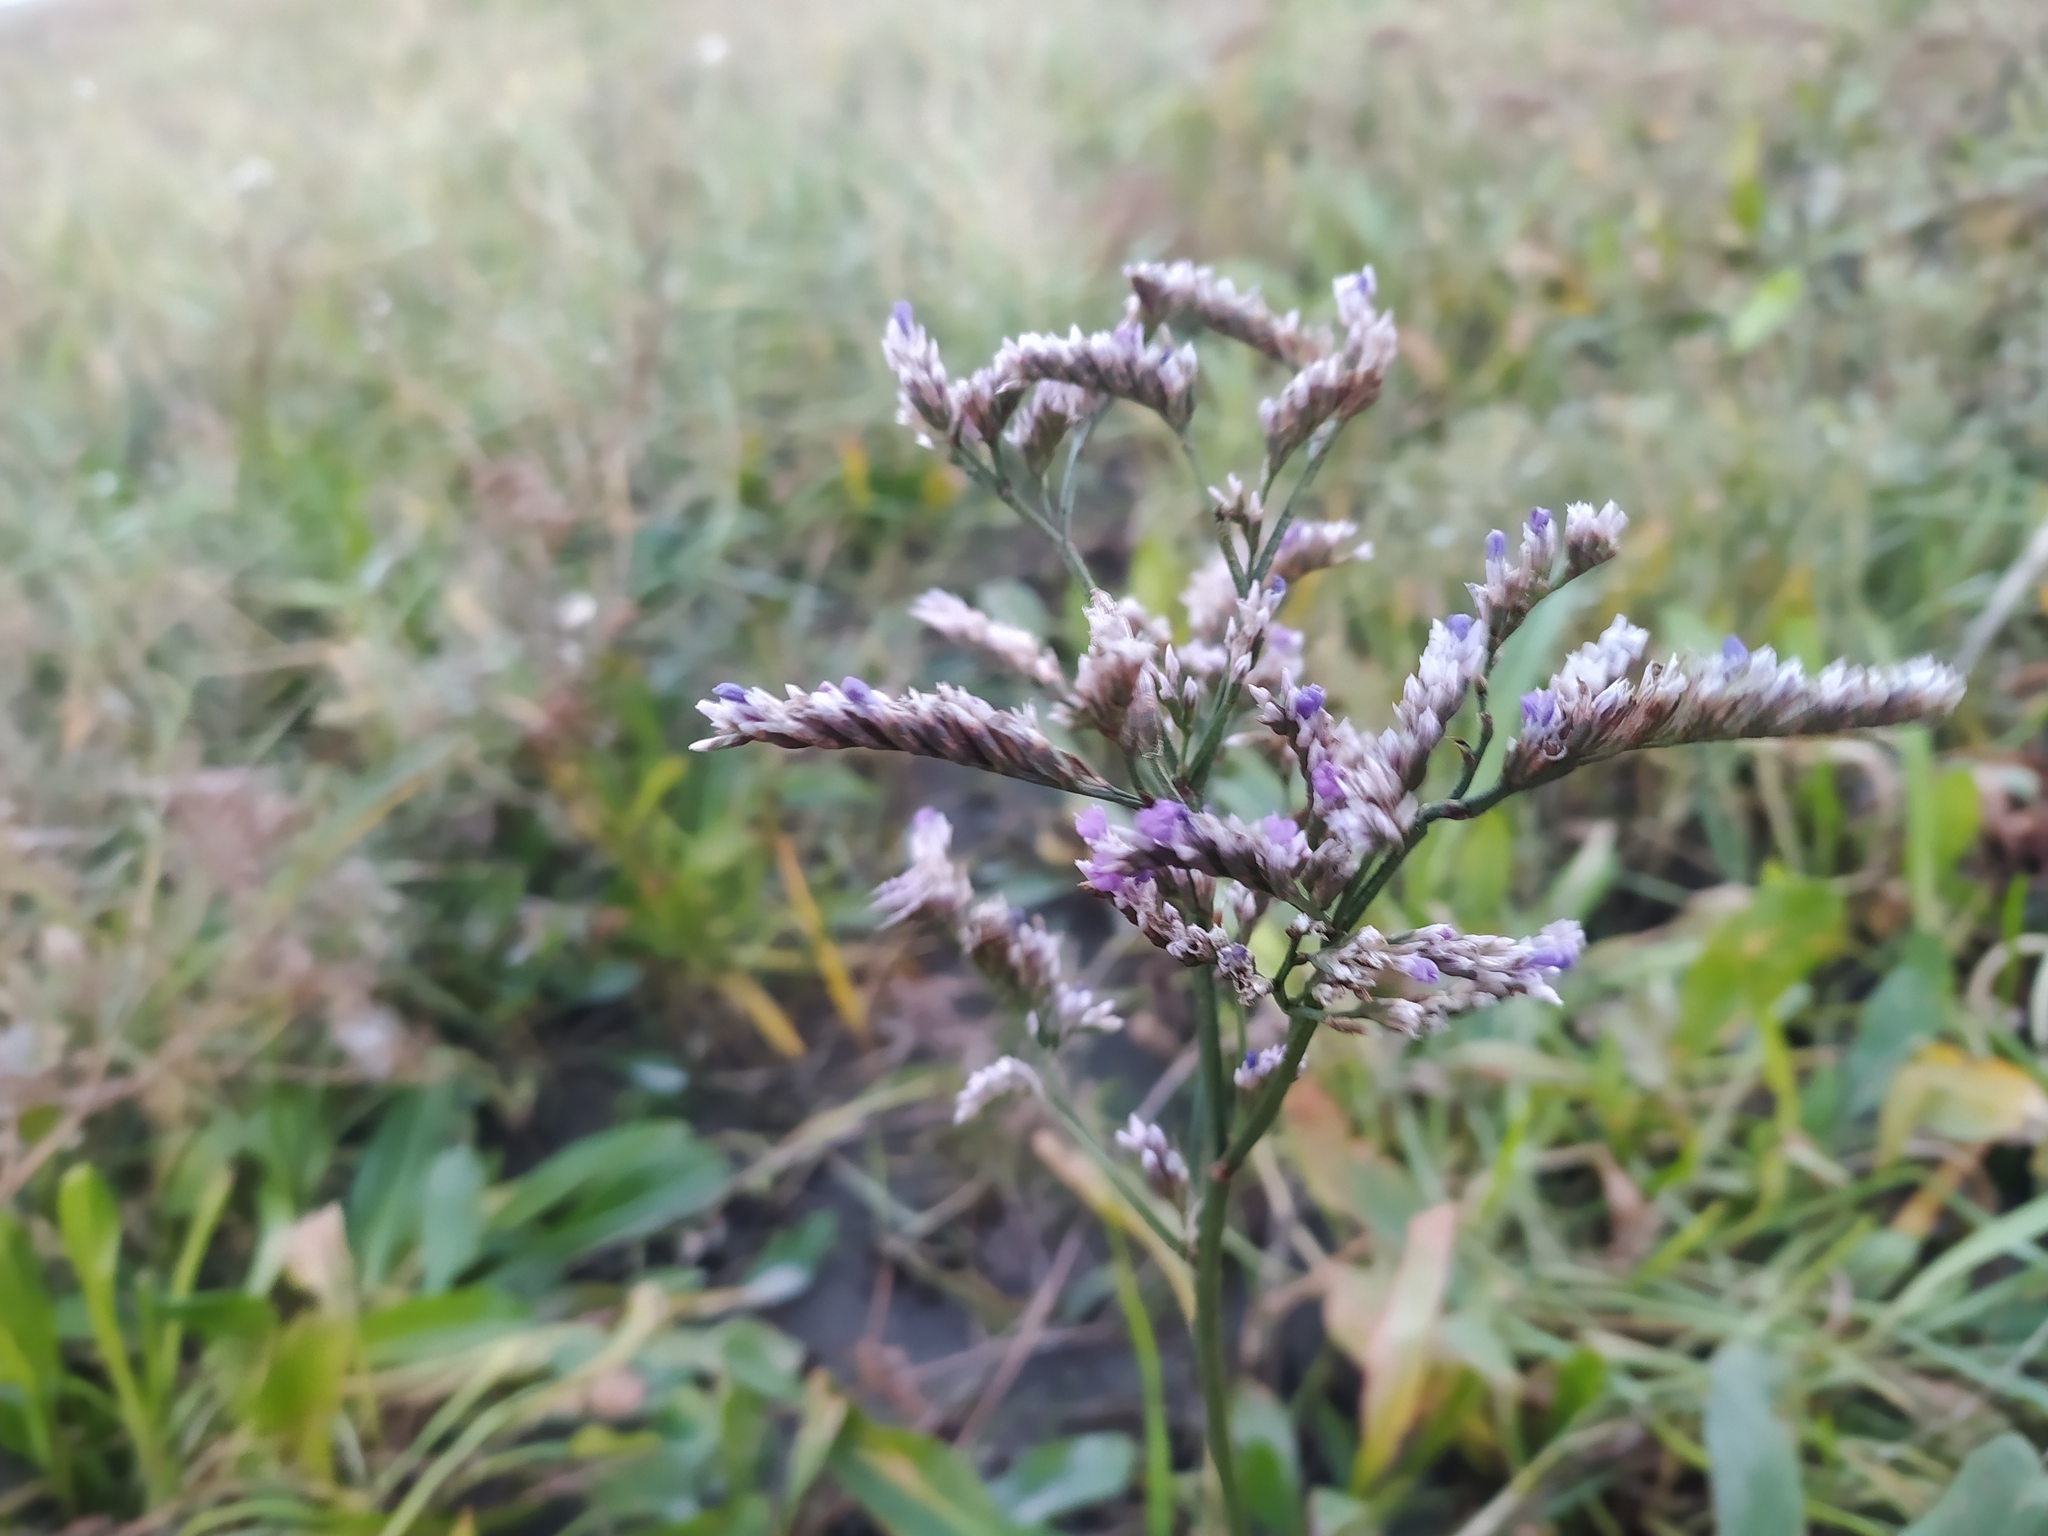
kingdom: Plantae
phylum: Tracheophyta
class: Magnoliopsida
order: Caryophyllales
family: Plumbaginaceae
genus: Limonium
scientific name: Limonium vulgare
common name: Common sea-lavender
